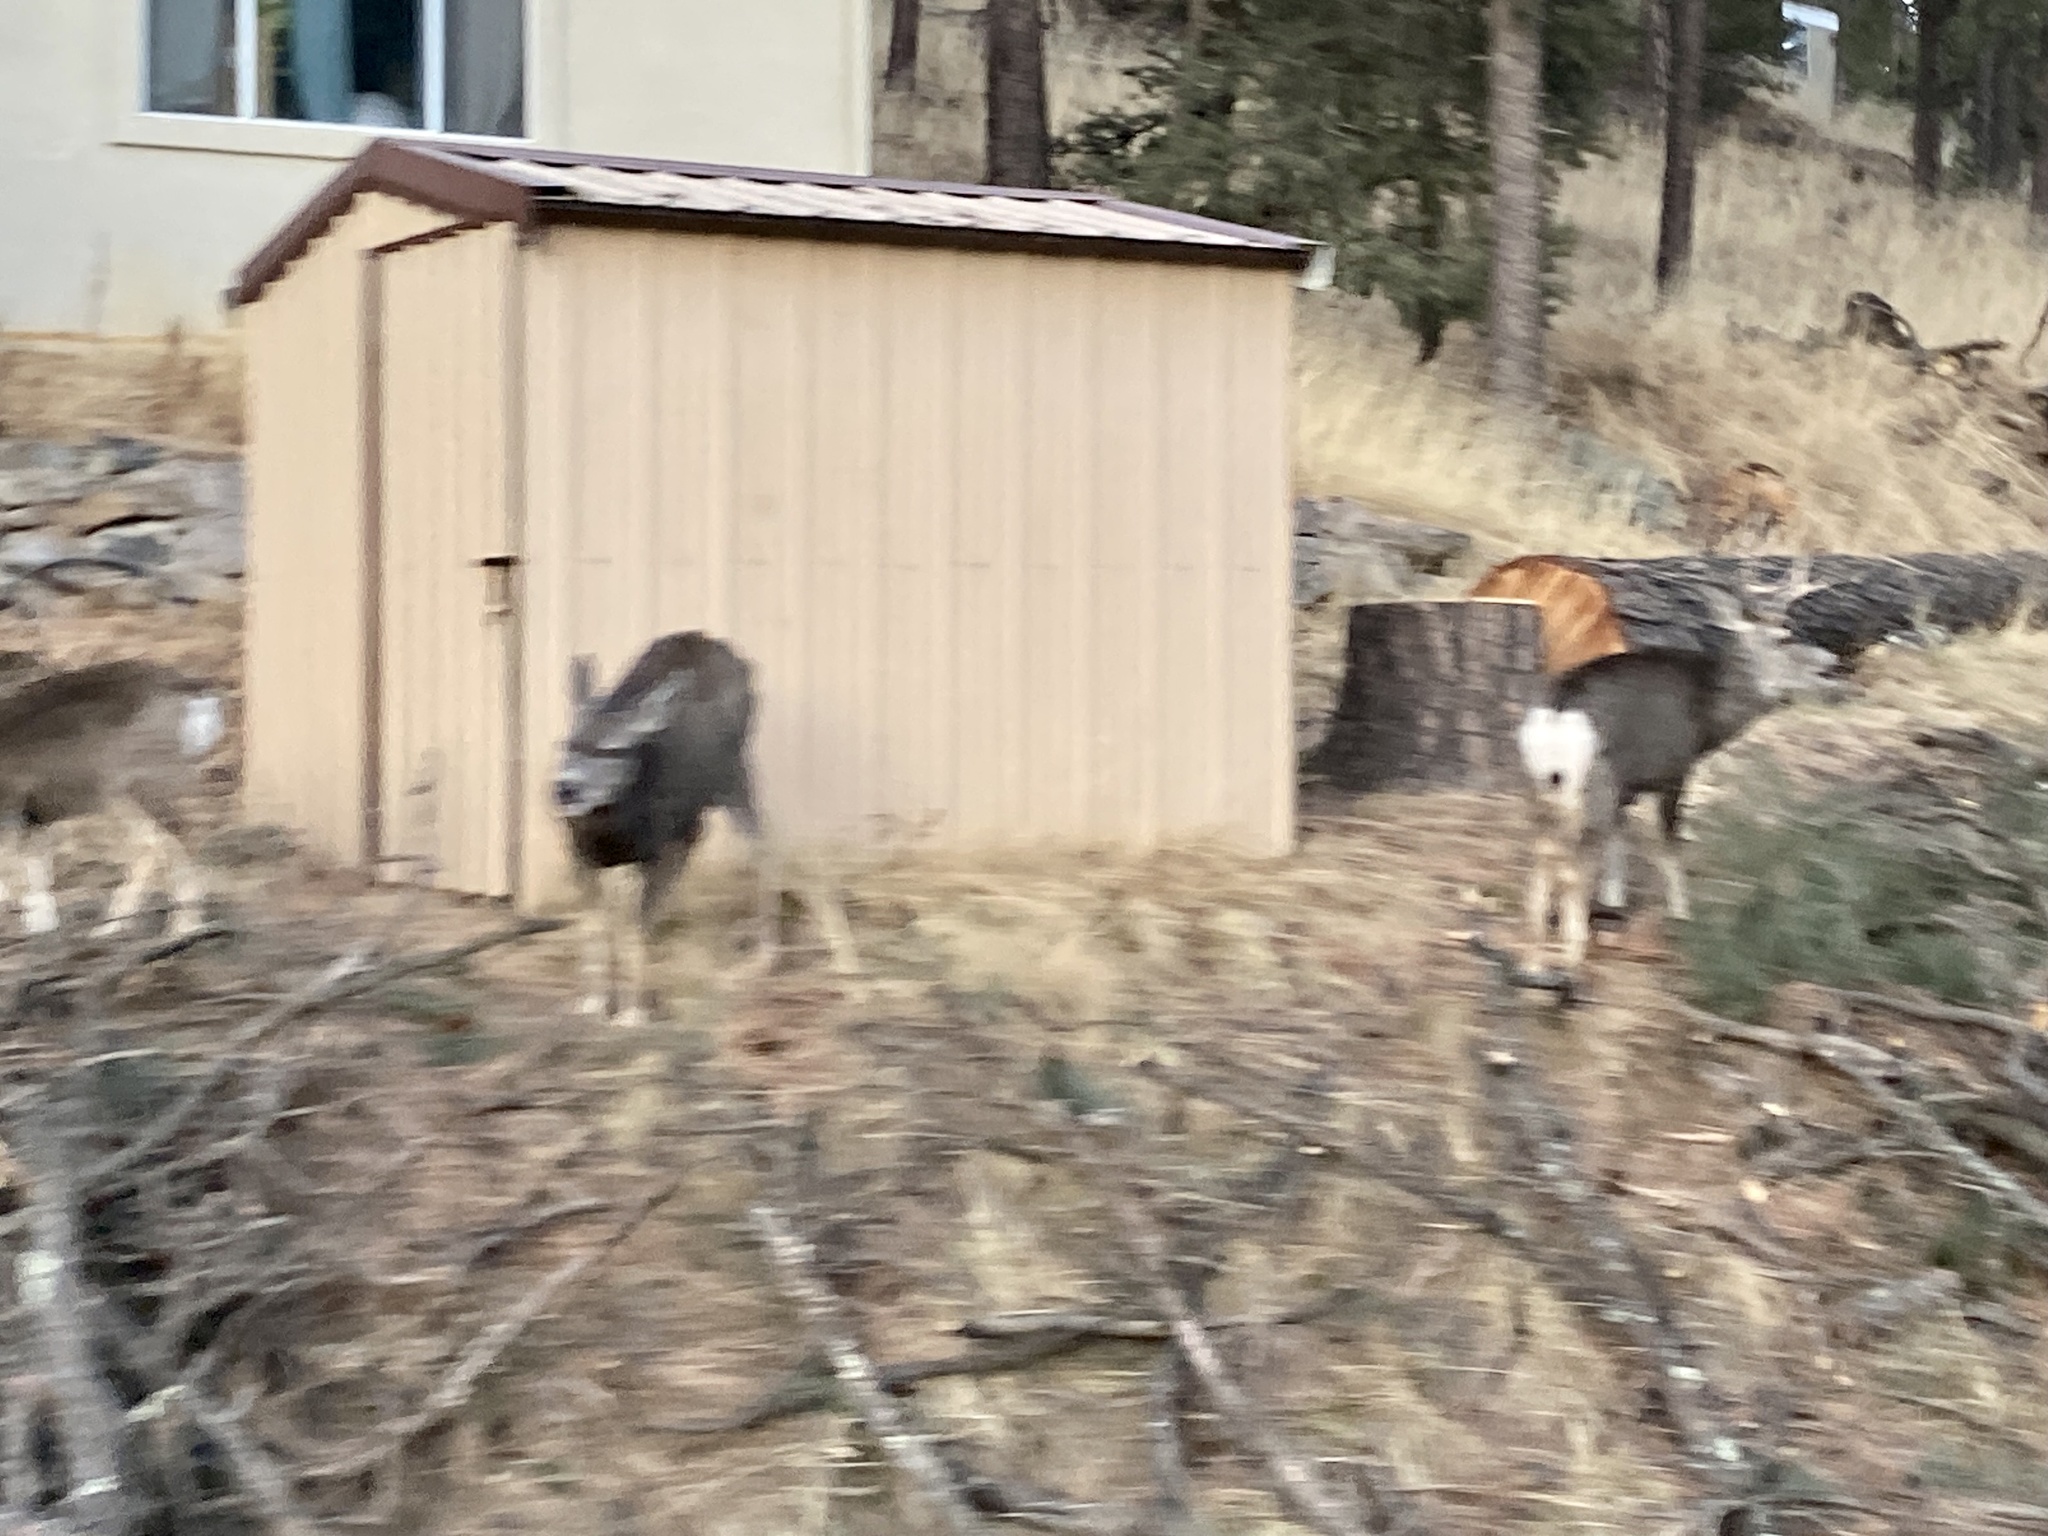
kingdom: Animalia
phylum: Chordata
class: Mammalia
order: Artiodactyla
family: Cervidae
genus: Odocoileus
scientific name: Odocoileus hemionus
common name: Mule deer
